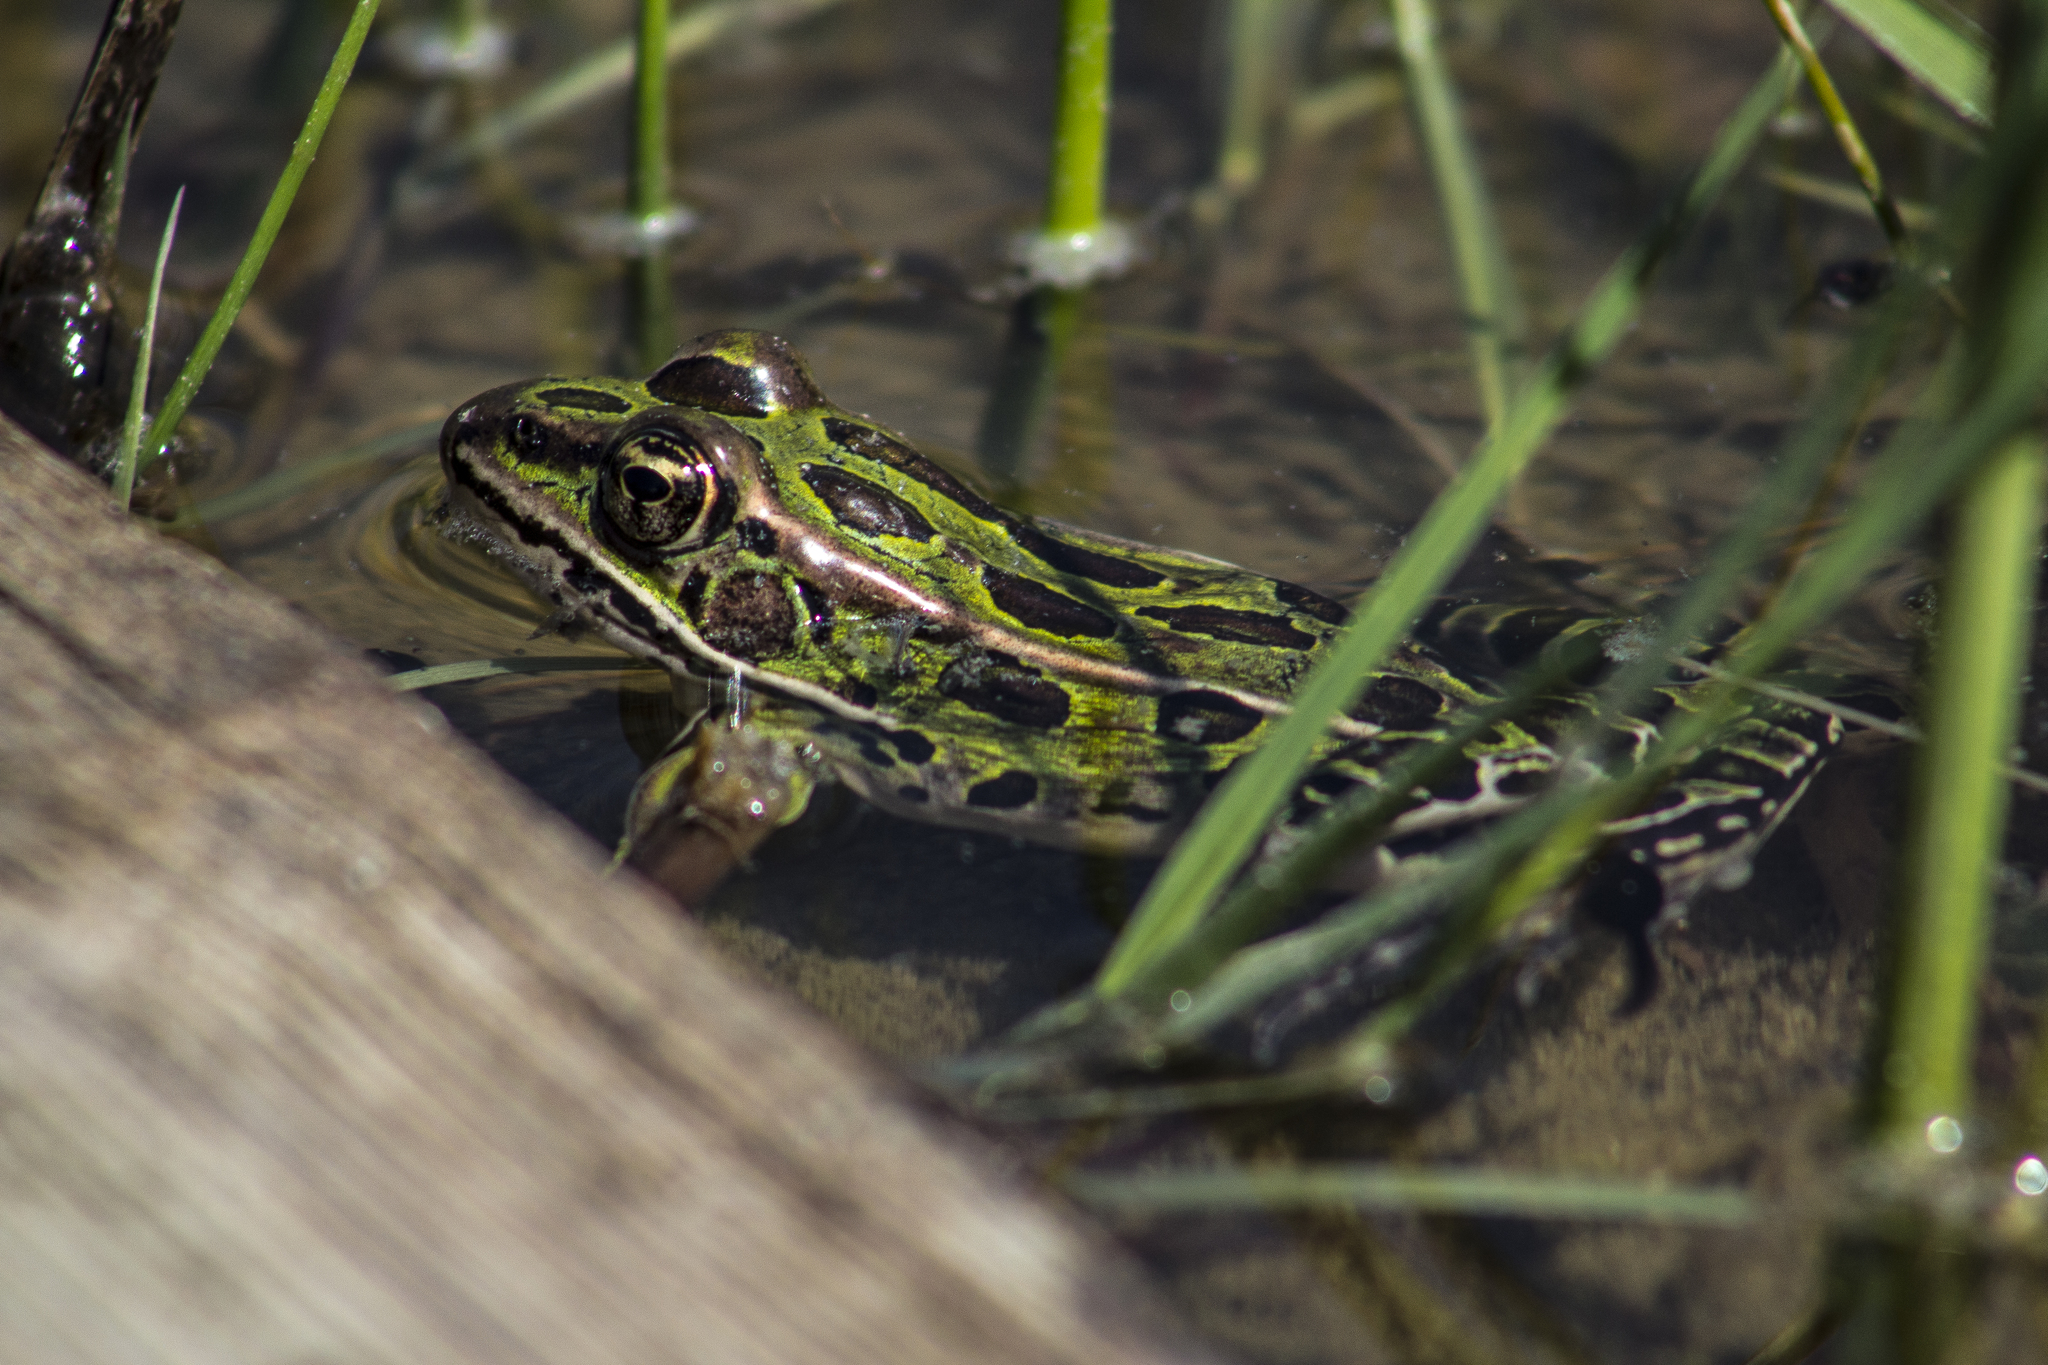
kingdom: Animalia
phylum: Chordata
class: Amphibia
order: Anura
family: Ranidae
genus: Lithobates
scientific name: Lithobates pipiens
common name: Northern leopard frog
